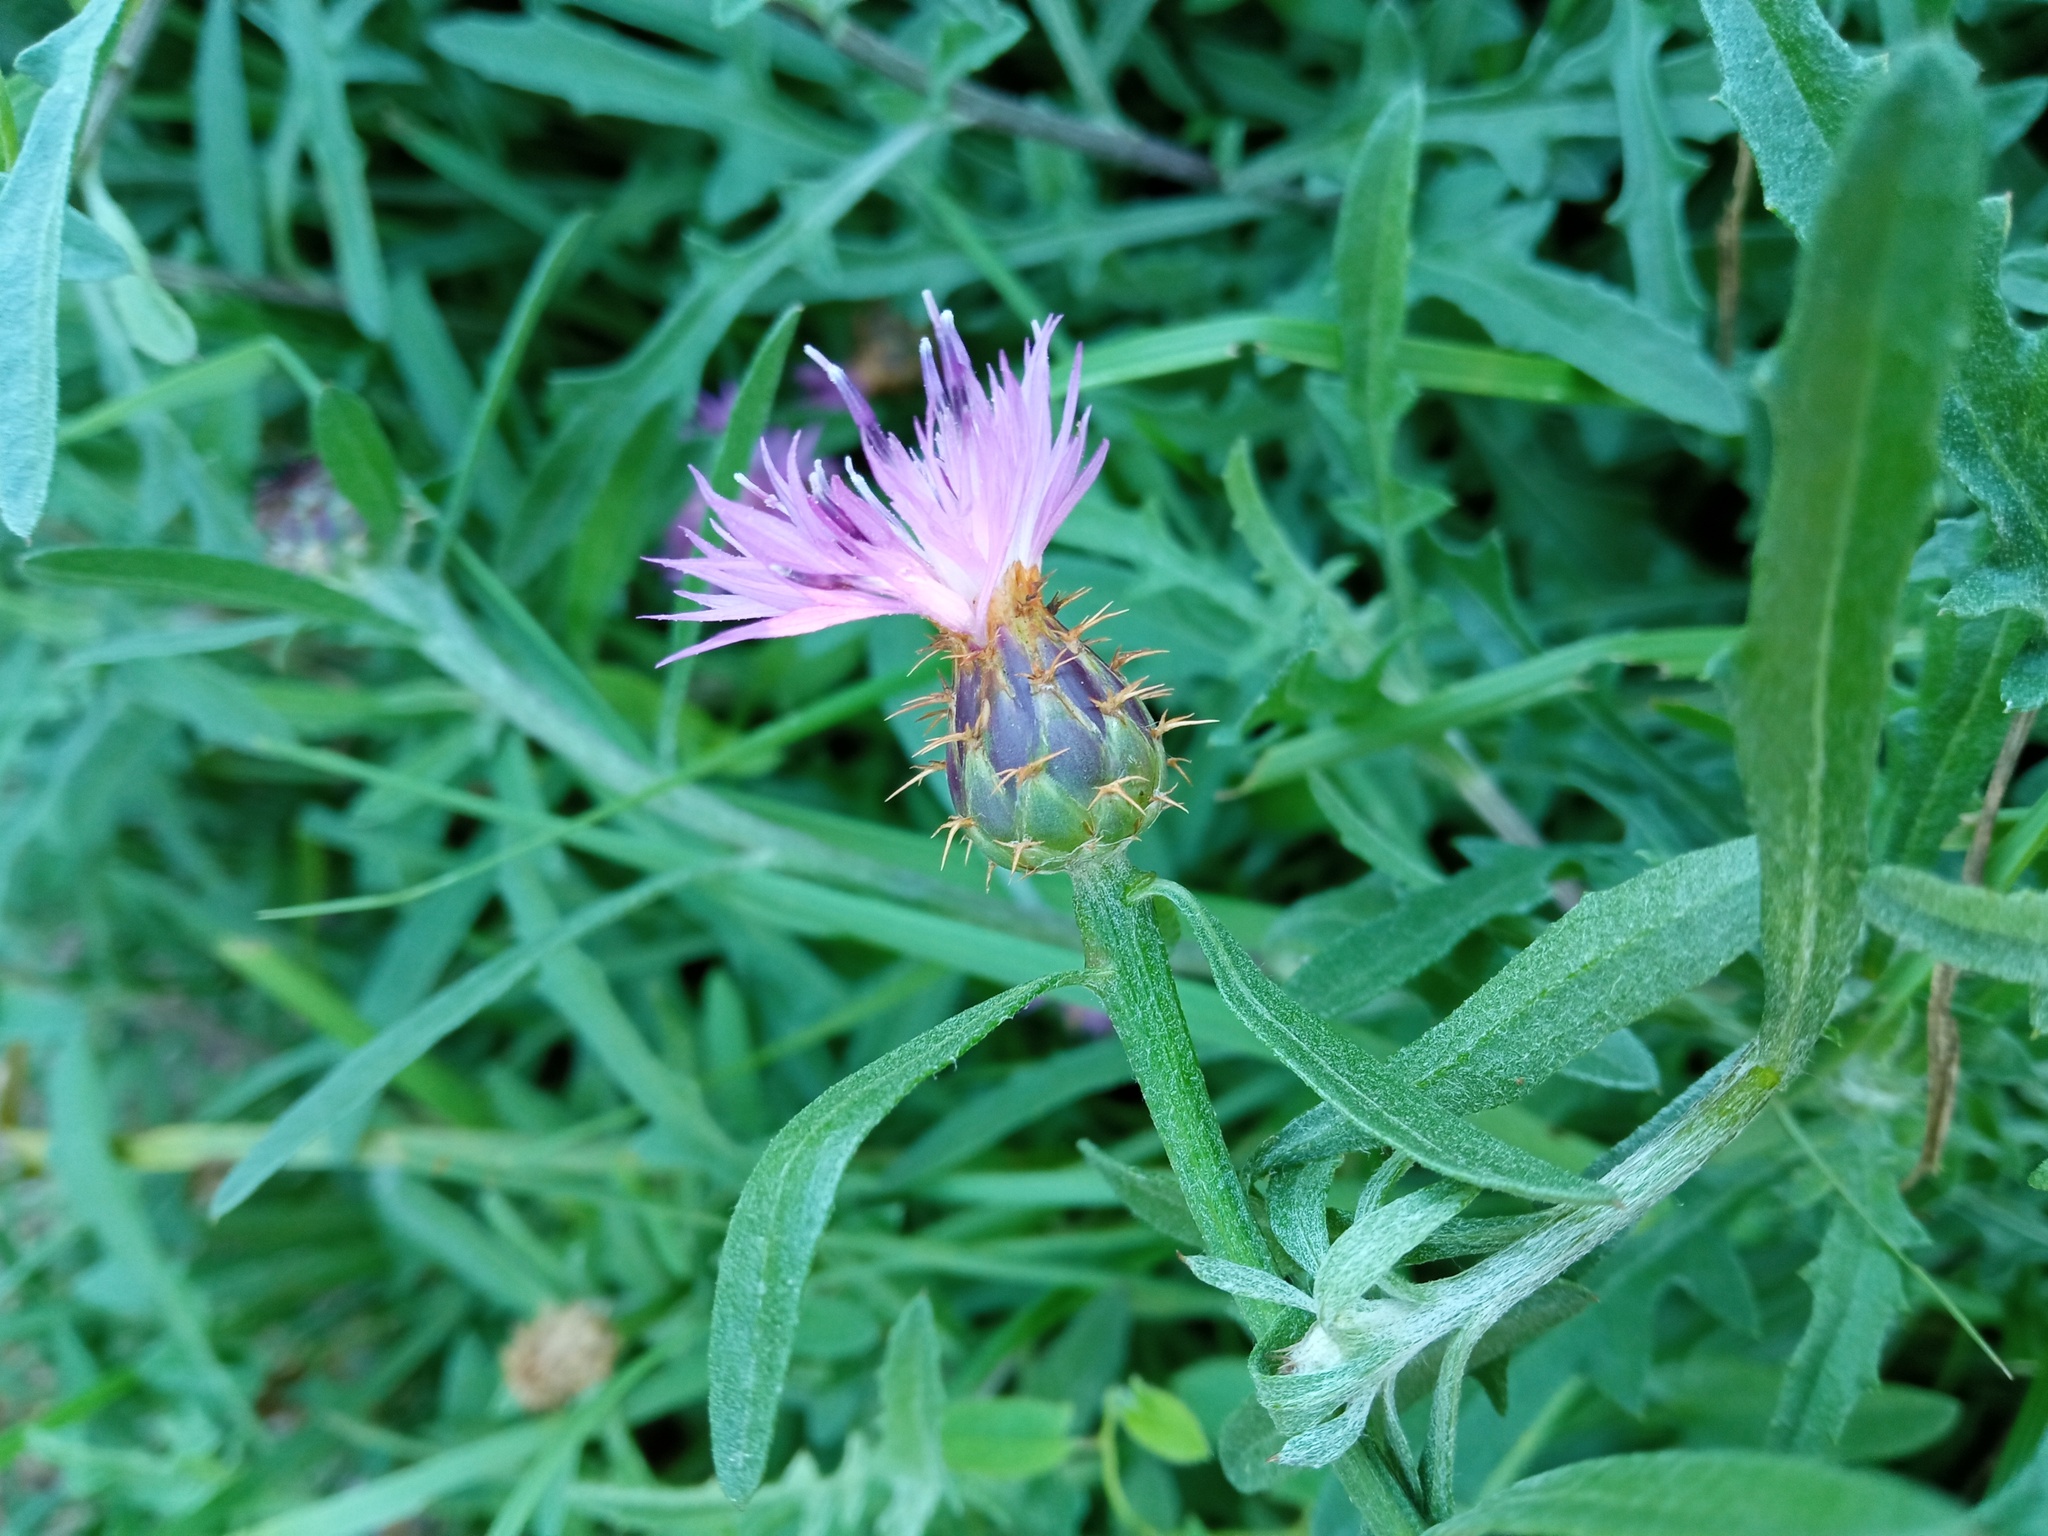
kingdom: Plantae
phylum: Tracheophyta
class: Magnoliopsida
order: Asterales
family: Asteraceae
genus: Centaurea
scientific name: Centaurea aspera
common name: Rough star-thistle
